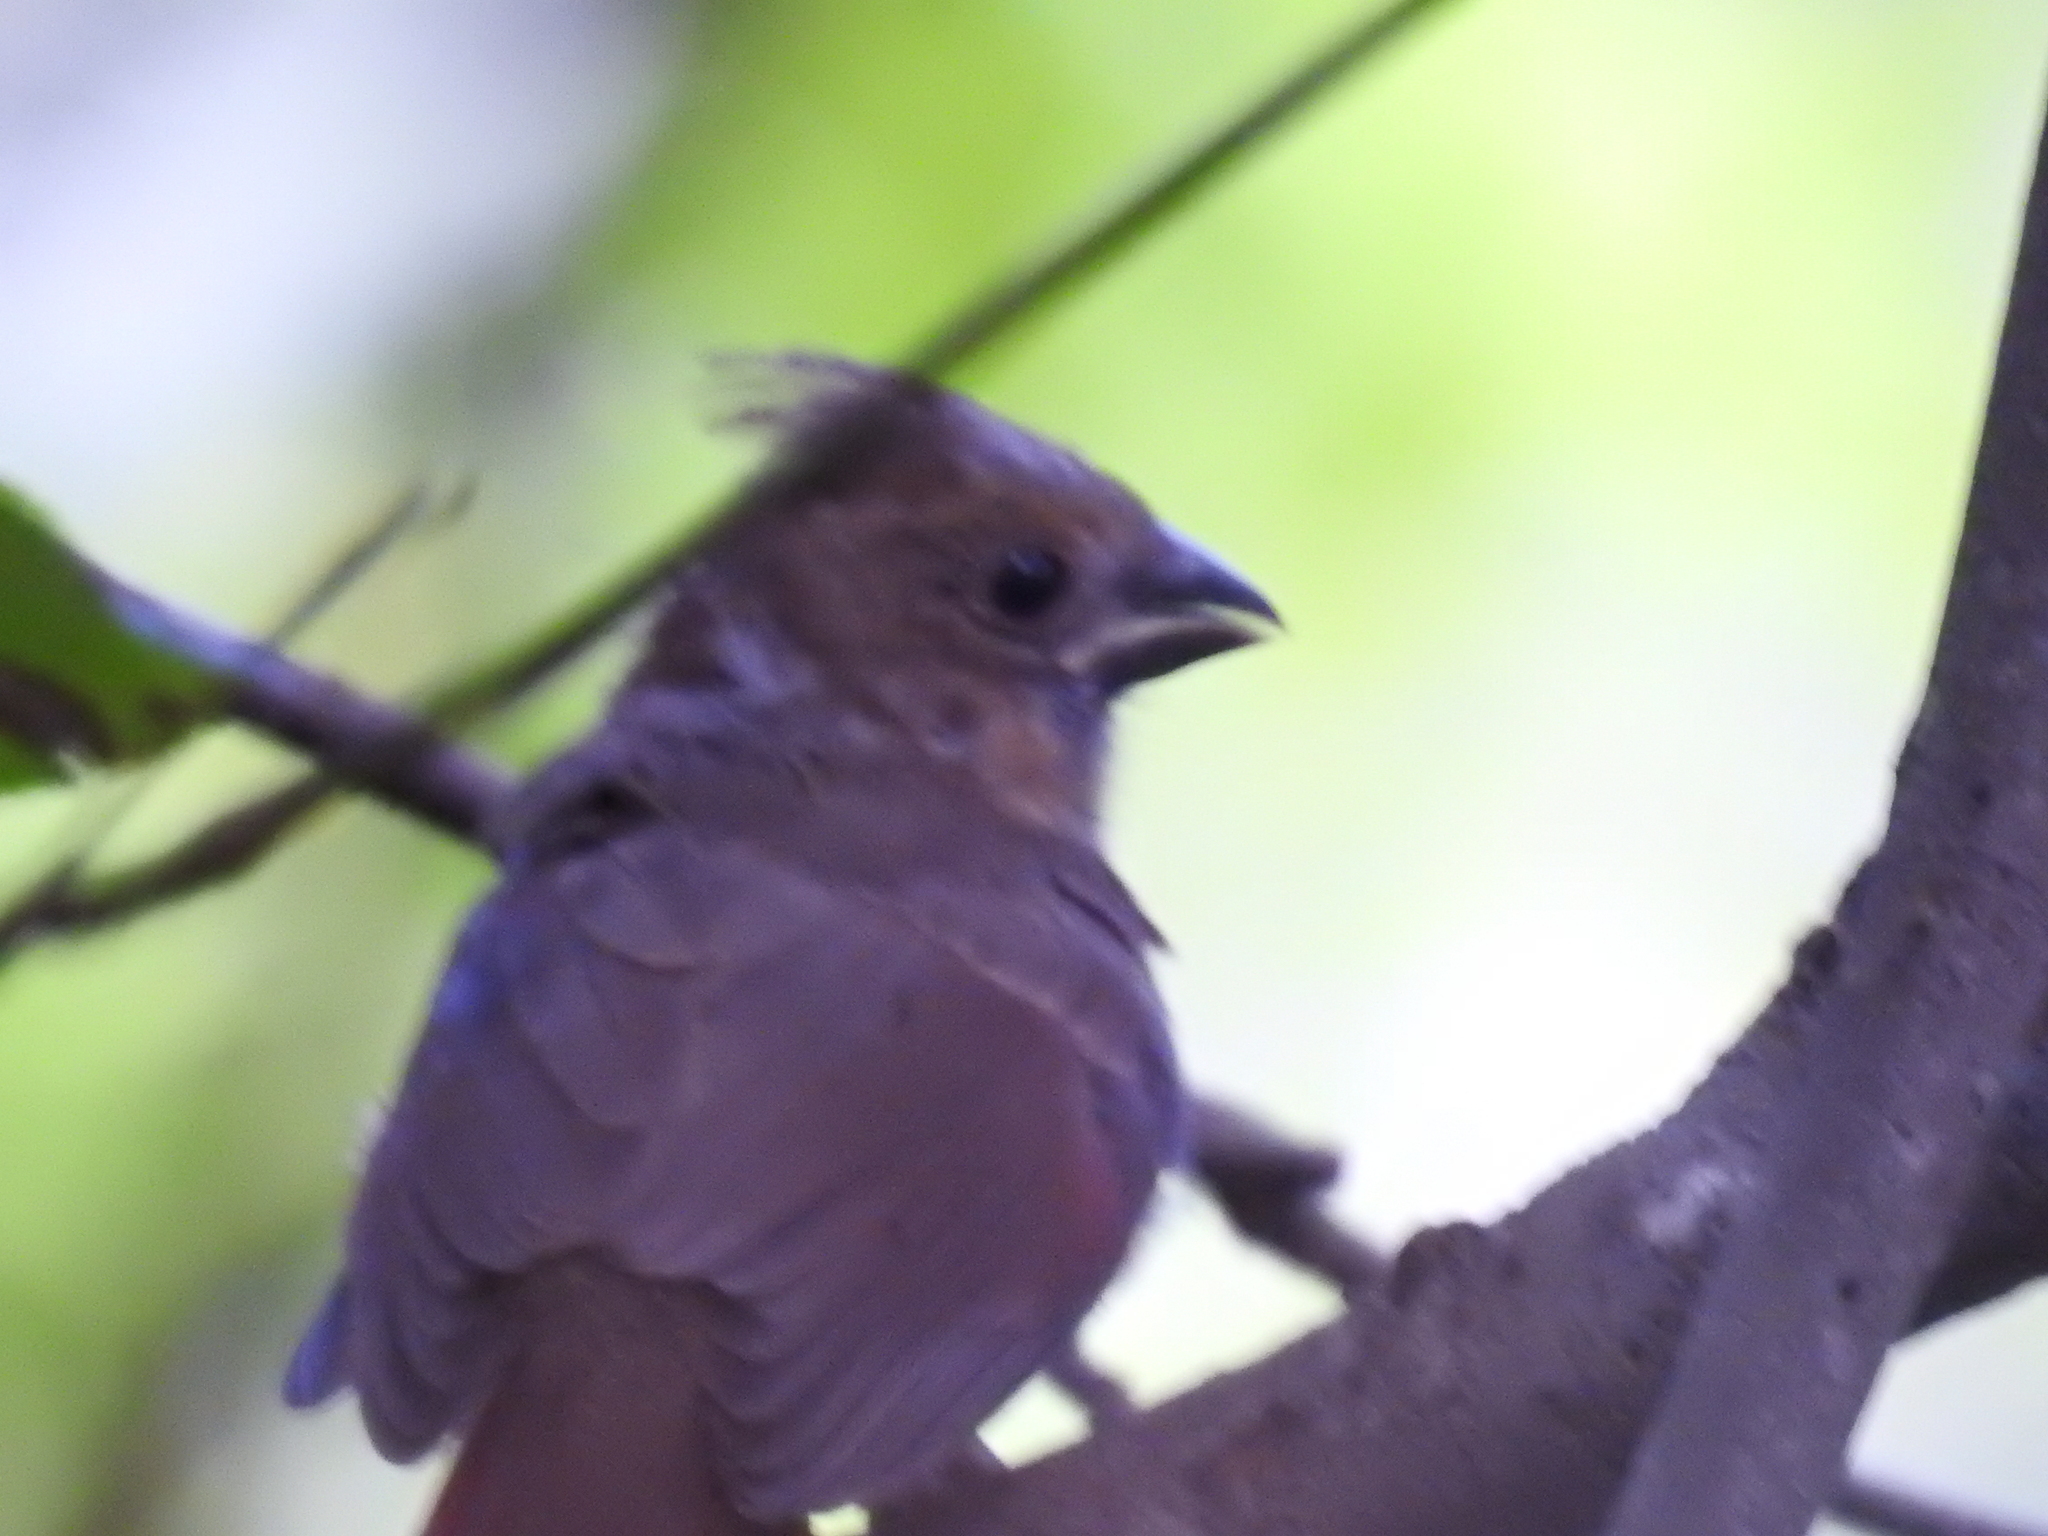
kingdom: Animalia
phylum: Chordata
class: Aves
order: Passeriformes
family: Cardinalidae
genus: Cardinalis
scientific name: Cardinalis cardinalis
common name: Northern cardinal
